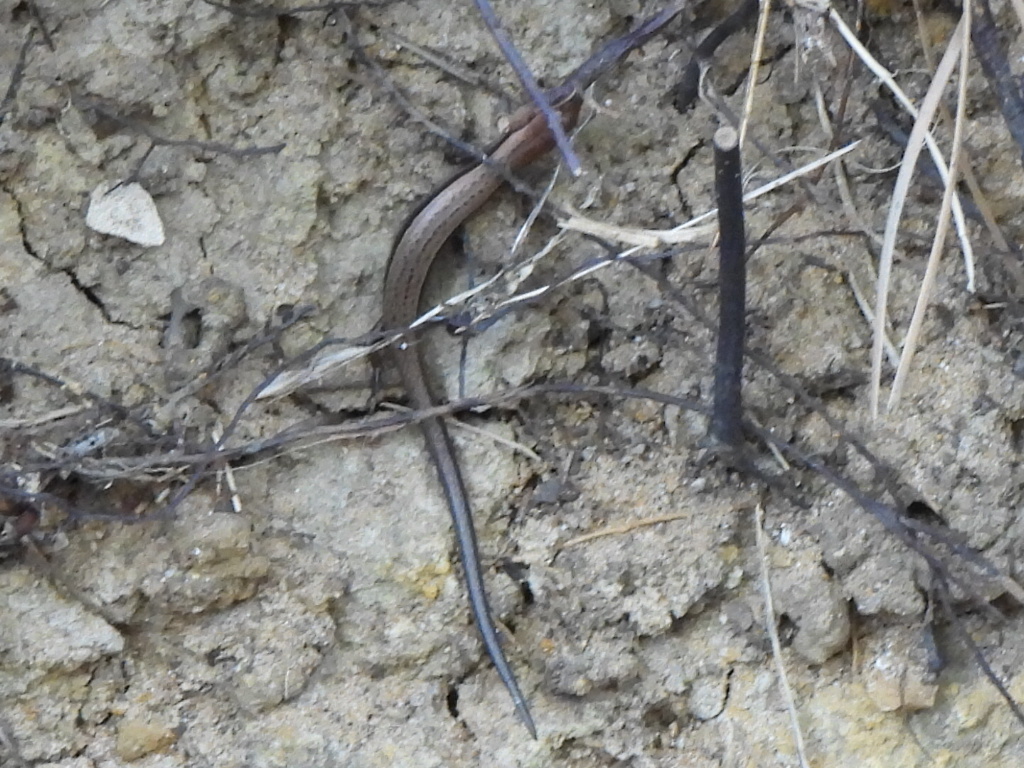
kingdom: Animalia
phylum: Chordata
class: Squamata
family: Scincidae
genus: Scincella
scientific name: Scincella lateralis
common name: Ground skink
